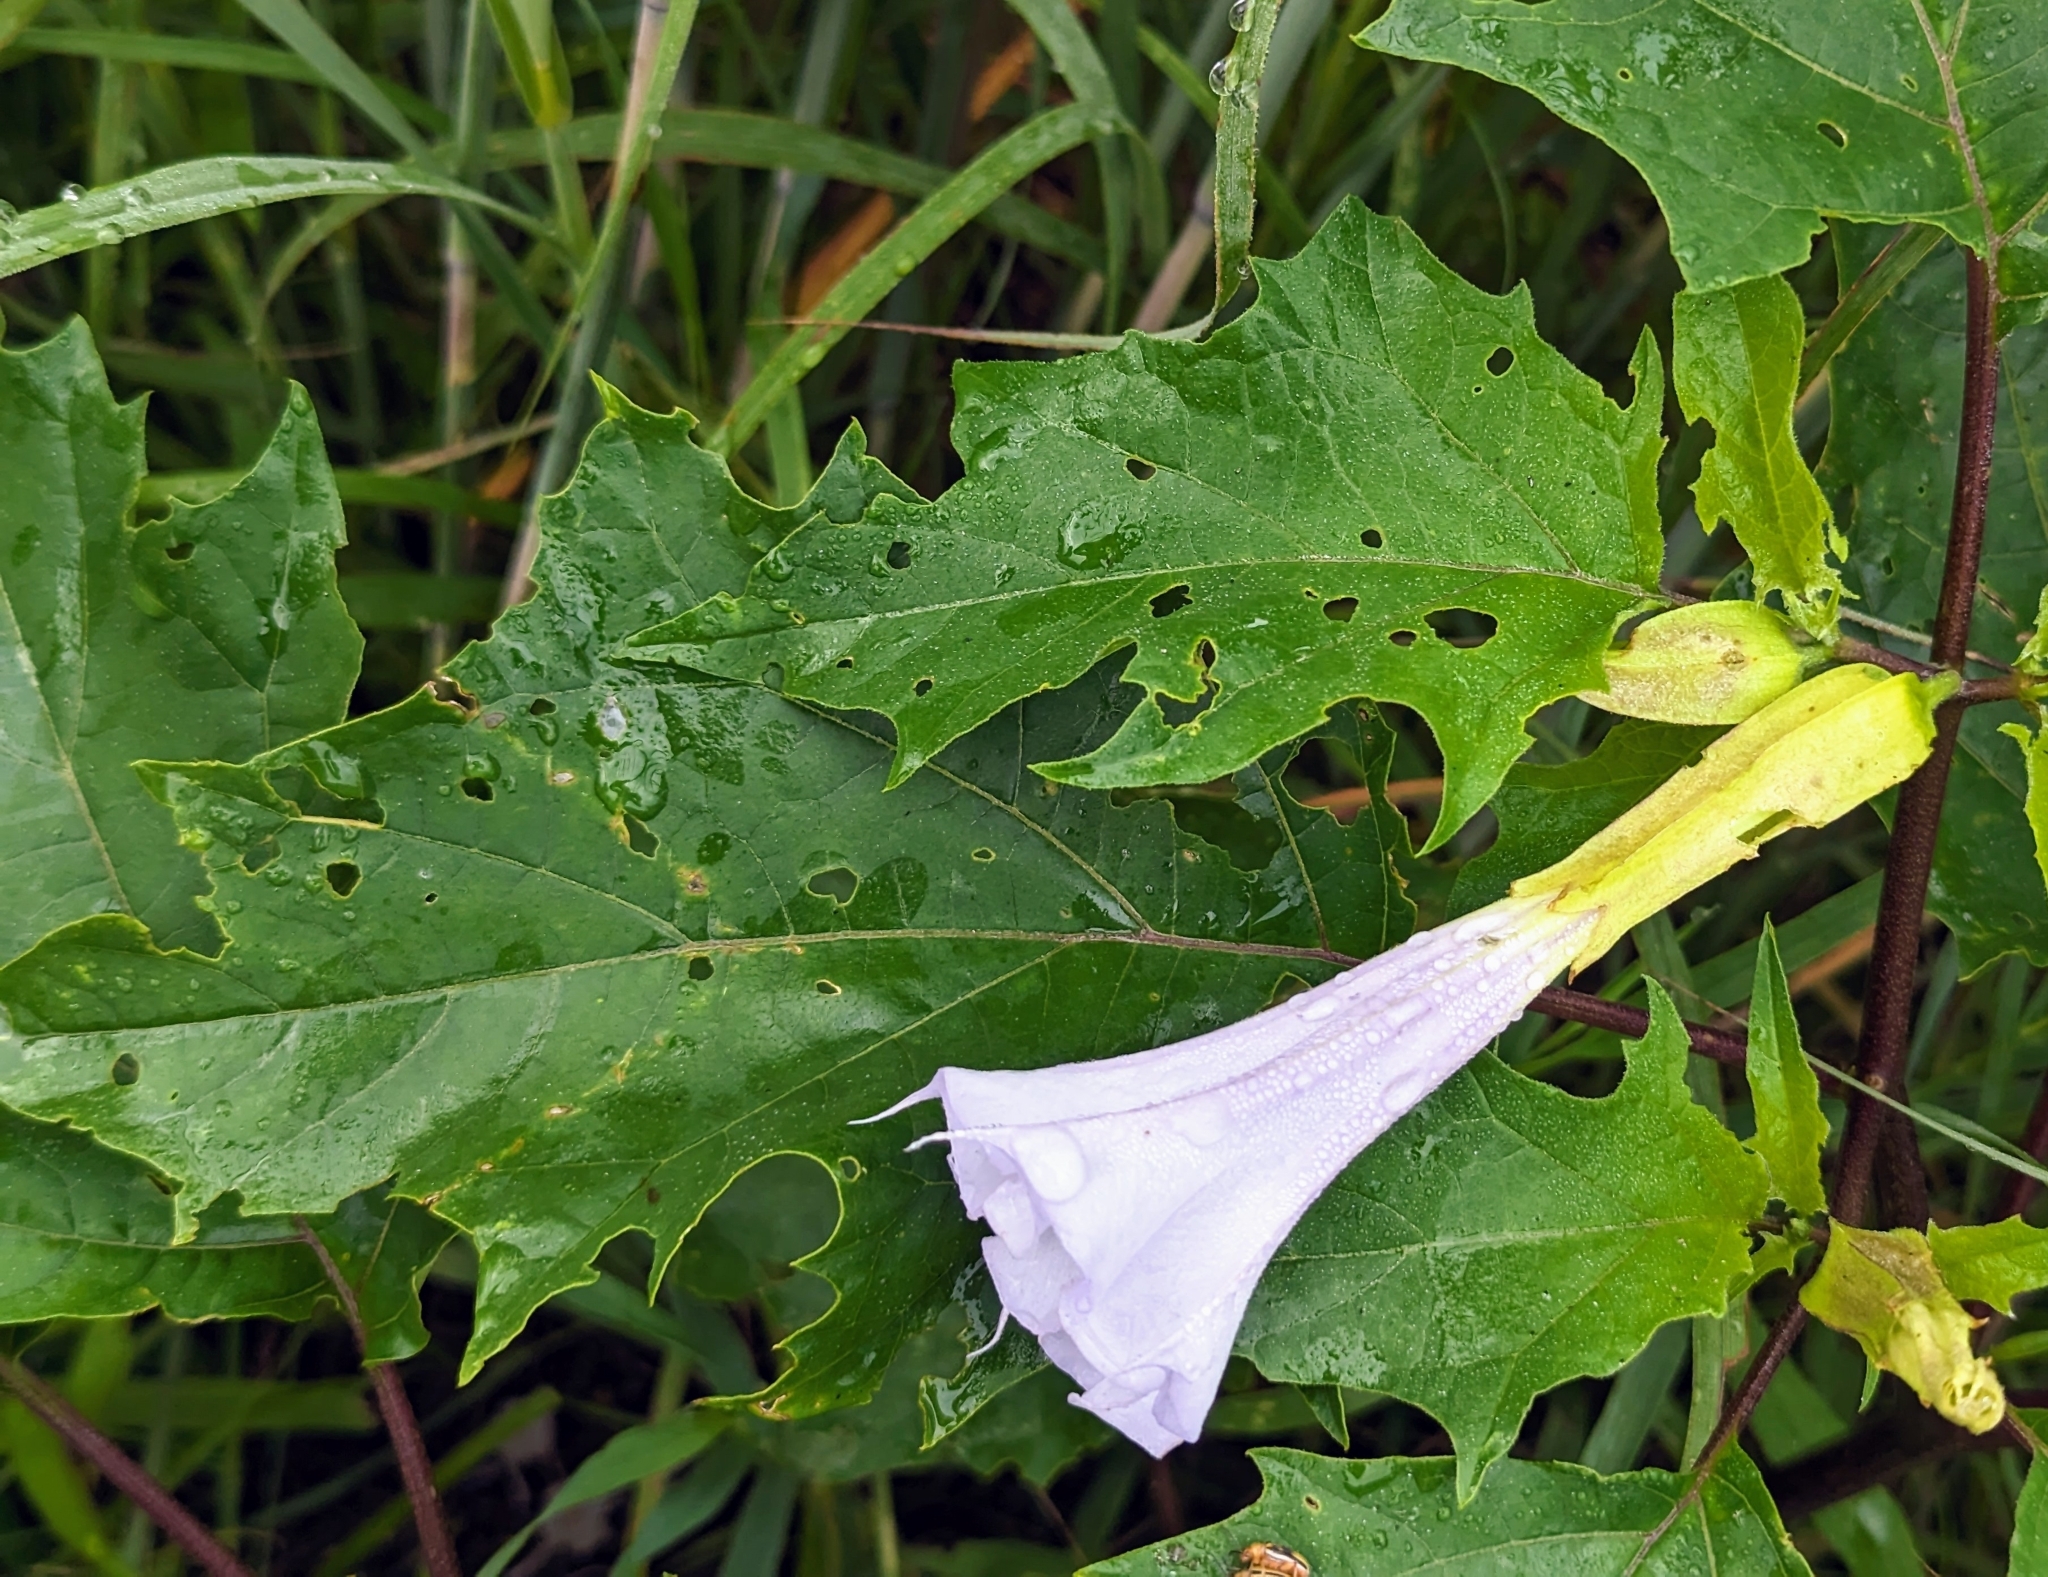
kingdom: Plantae
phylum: Tracheophyta
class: Magnoliopsida
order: Solanales
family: Solanaceae
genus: Datura
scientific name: Datura stramonium
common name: Thorn-apple
